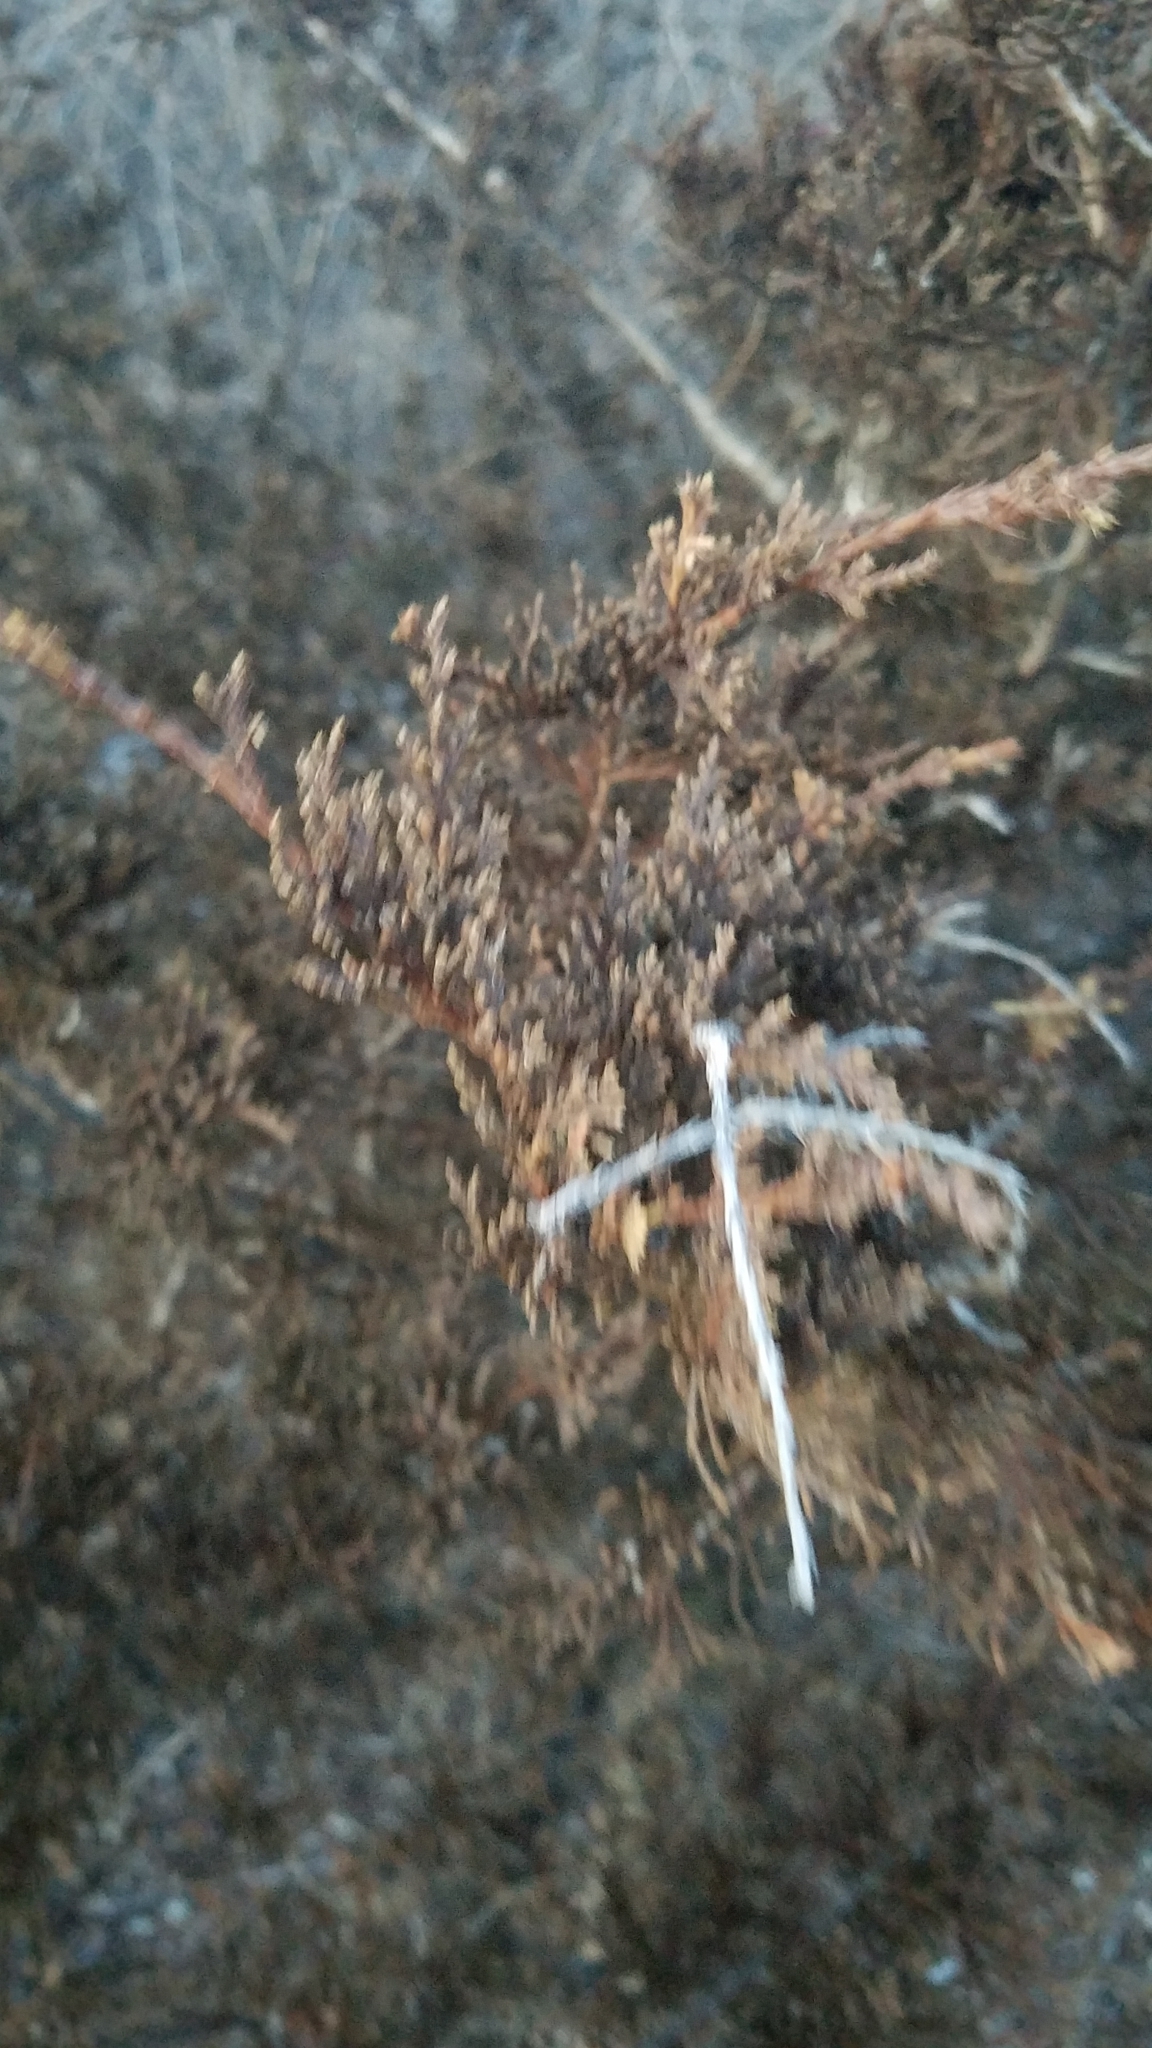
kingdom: Plantae
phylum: Tracheophyta
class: Pinopsida
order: Pinales
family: Cupressaceae
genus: Juniperus
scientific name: Juniperus virginiana
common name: Red juniper
